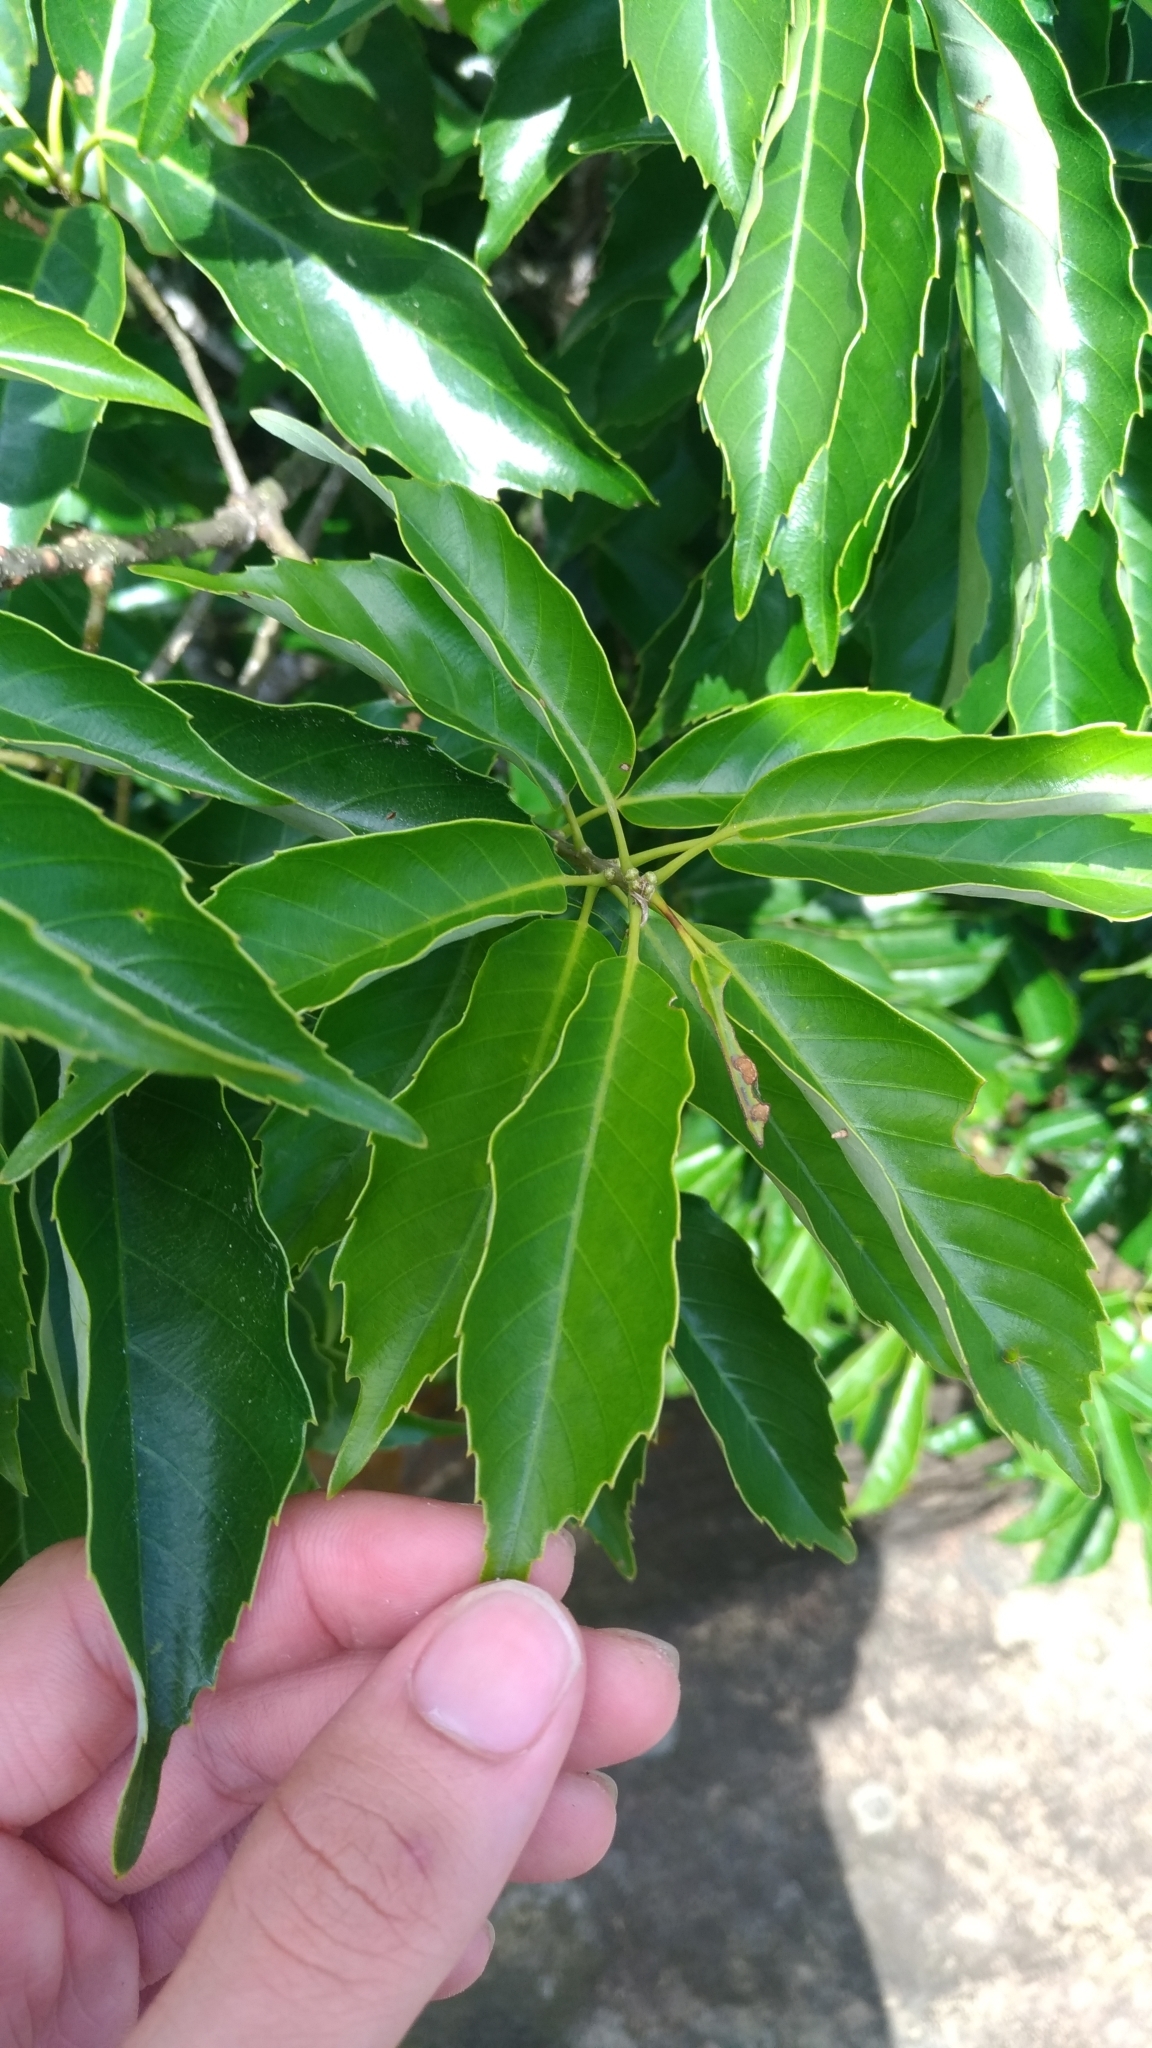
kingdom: Plantae
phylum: Tracheophyta
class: Magnoliopsida
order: Fagales
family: Fagaceae
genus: Quercus
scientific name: Quercus glauca
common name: Ring-cup oak
